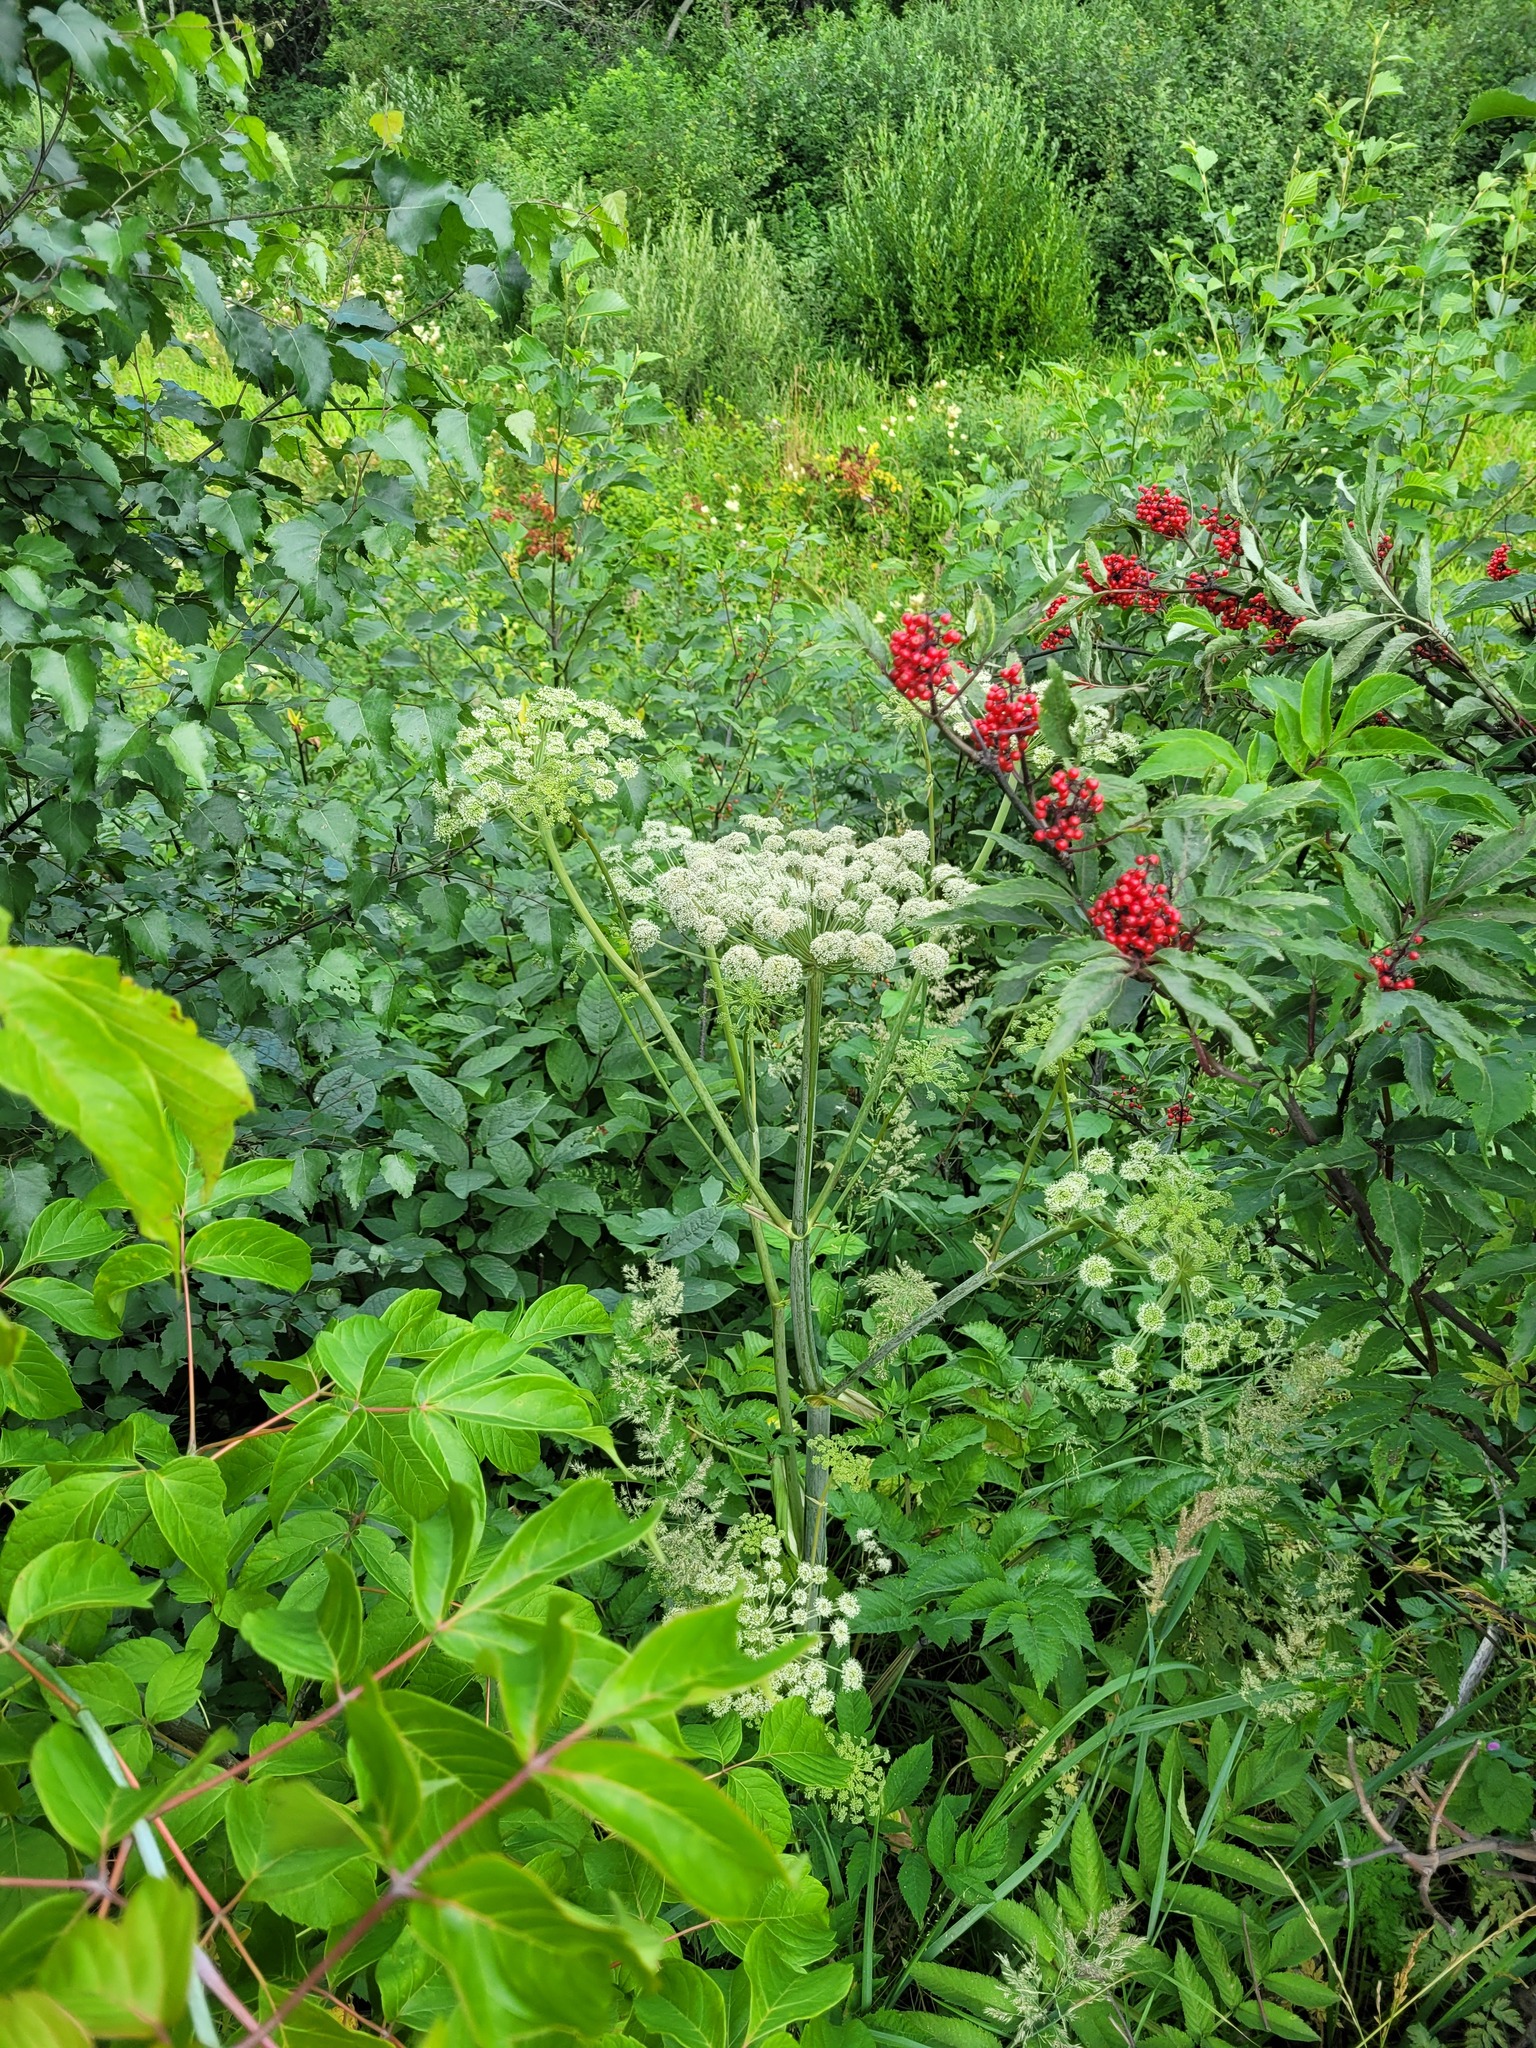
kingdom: Plantae
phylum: Tracheophyta
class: Magnoliopsida
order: Apiales
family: Apiaceae
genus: Angelica
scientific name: Angelica sylvestris
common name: Wild angelica
